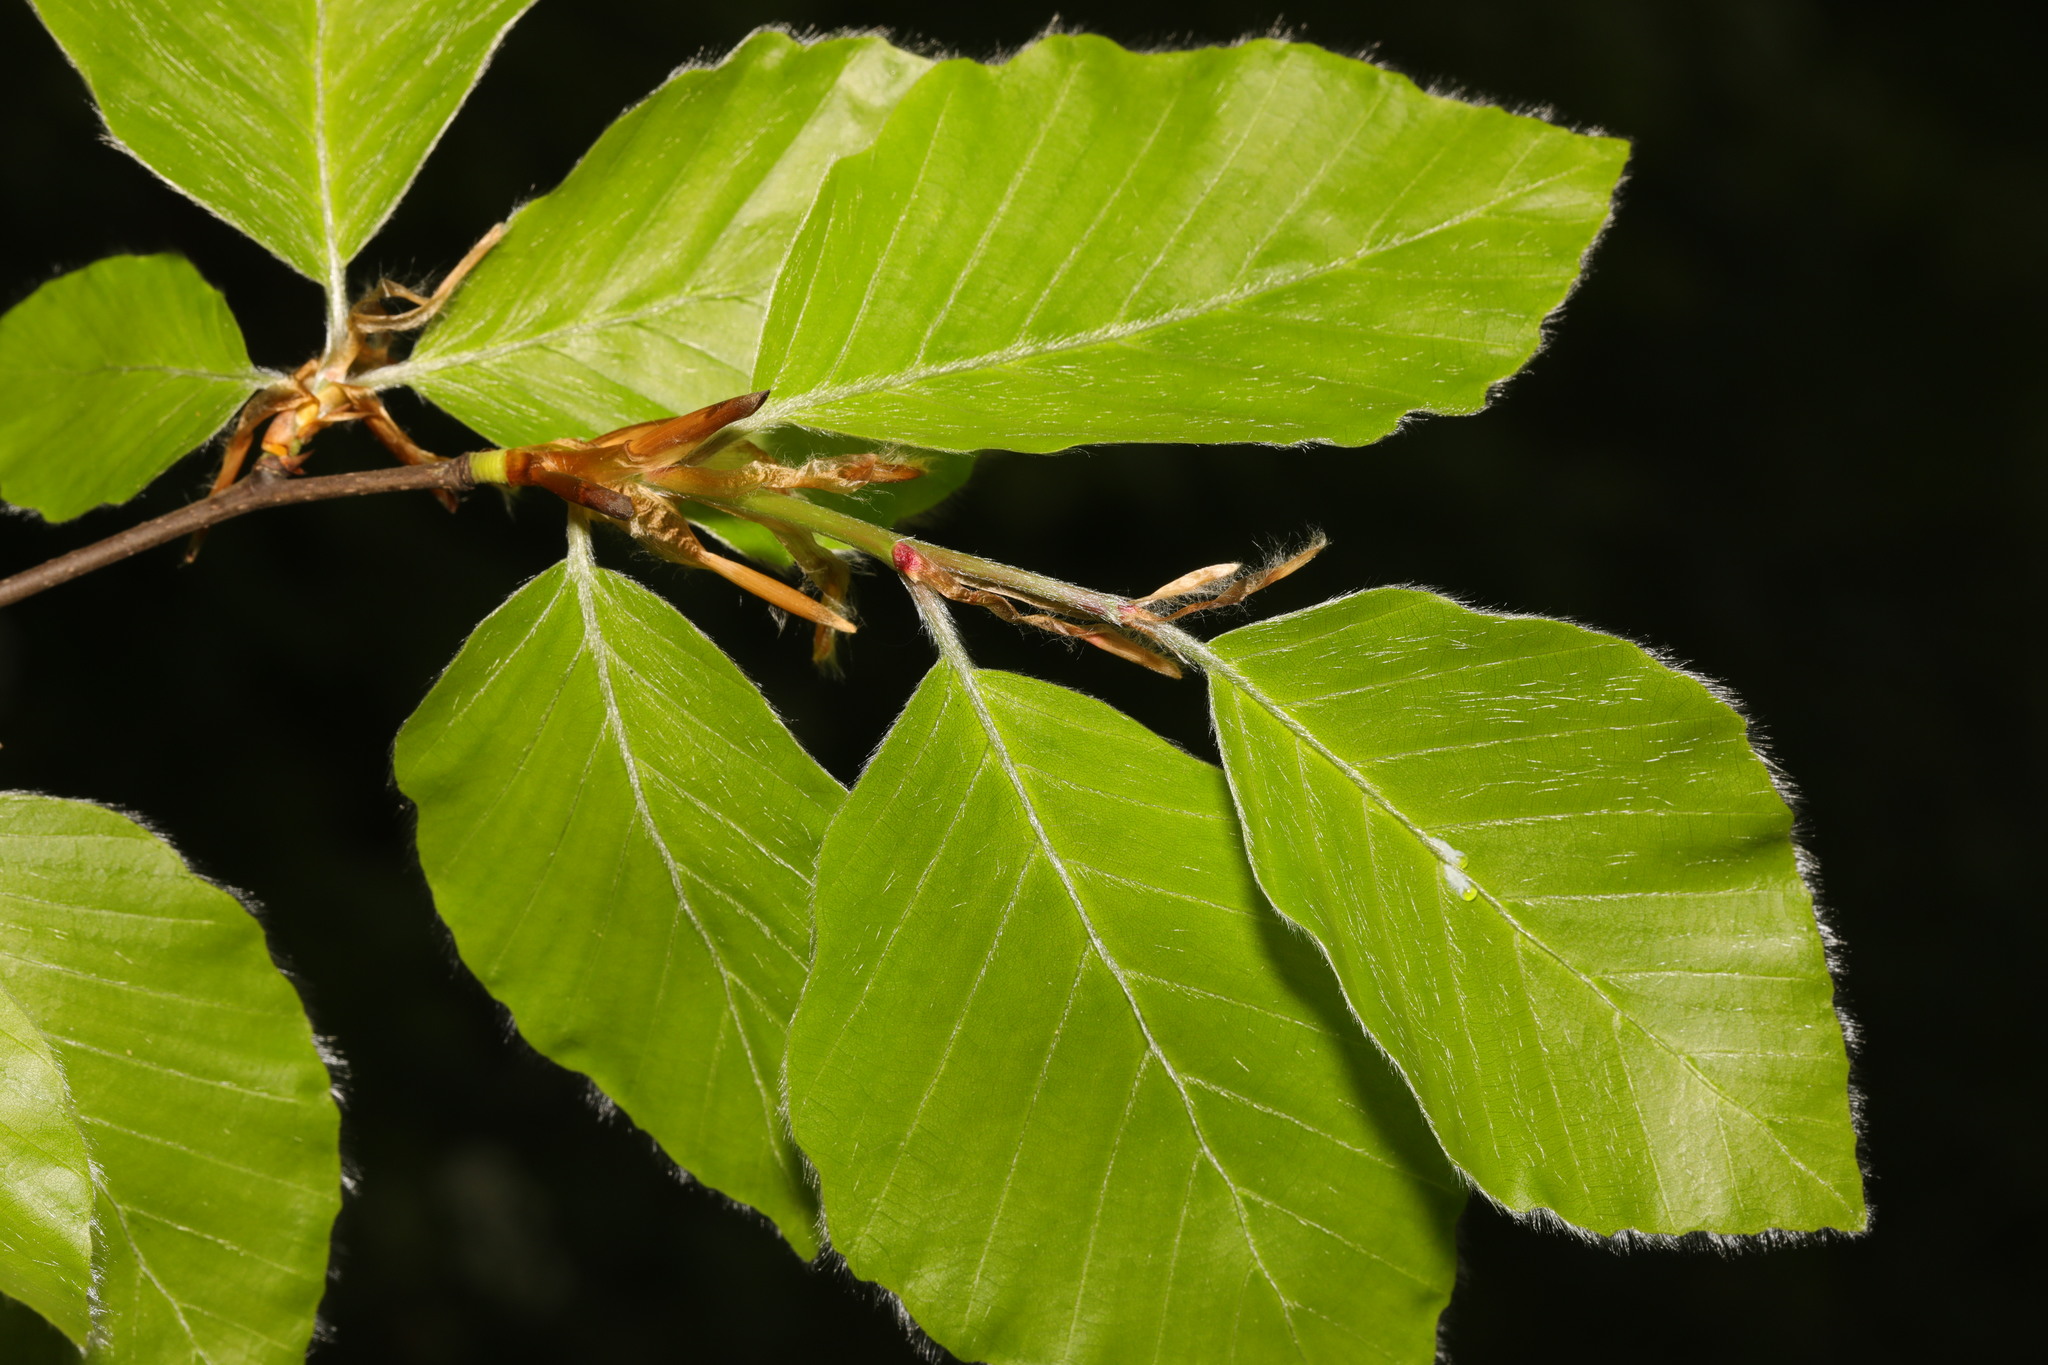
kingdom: Plantae
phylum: Tracheophyta
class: Magnoliopsida
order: Fagales
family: Fagaceae
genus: Fagus
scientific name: Fagus sylvatica
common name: Beech
